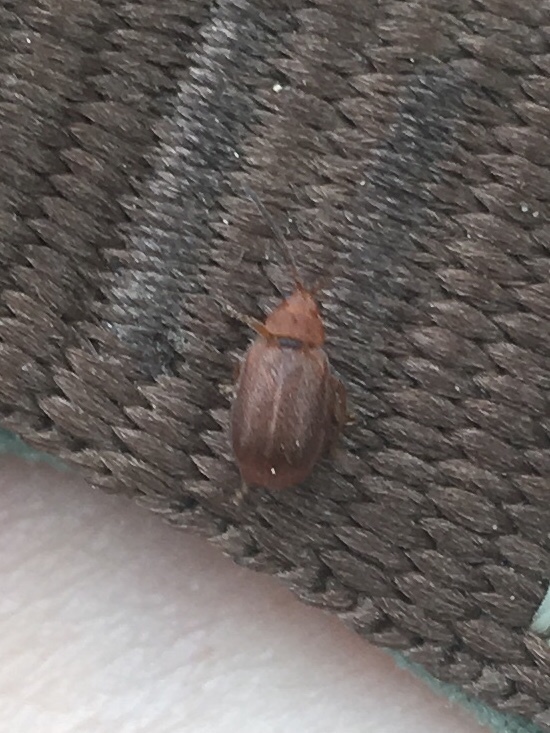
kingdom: Animalia
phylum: Arthropoda
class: Insecta
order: Coleoptera
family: Chrysomelidae
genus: Tricholochmaea
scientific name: Tricholochmaea kalmiae
